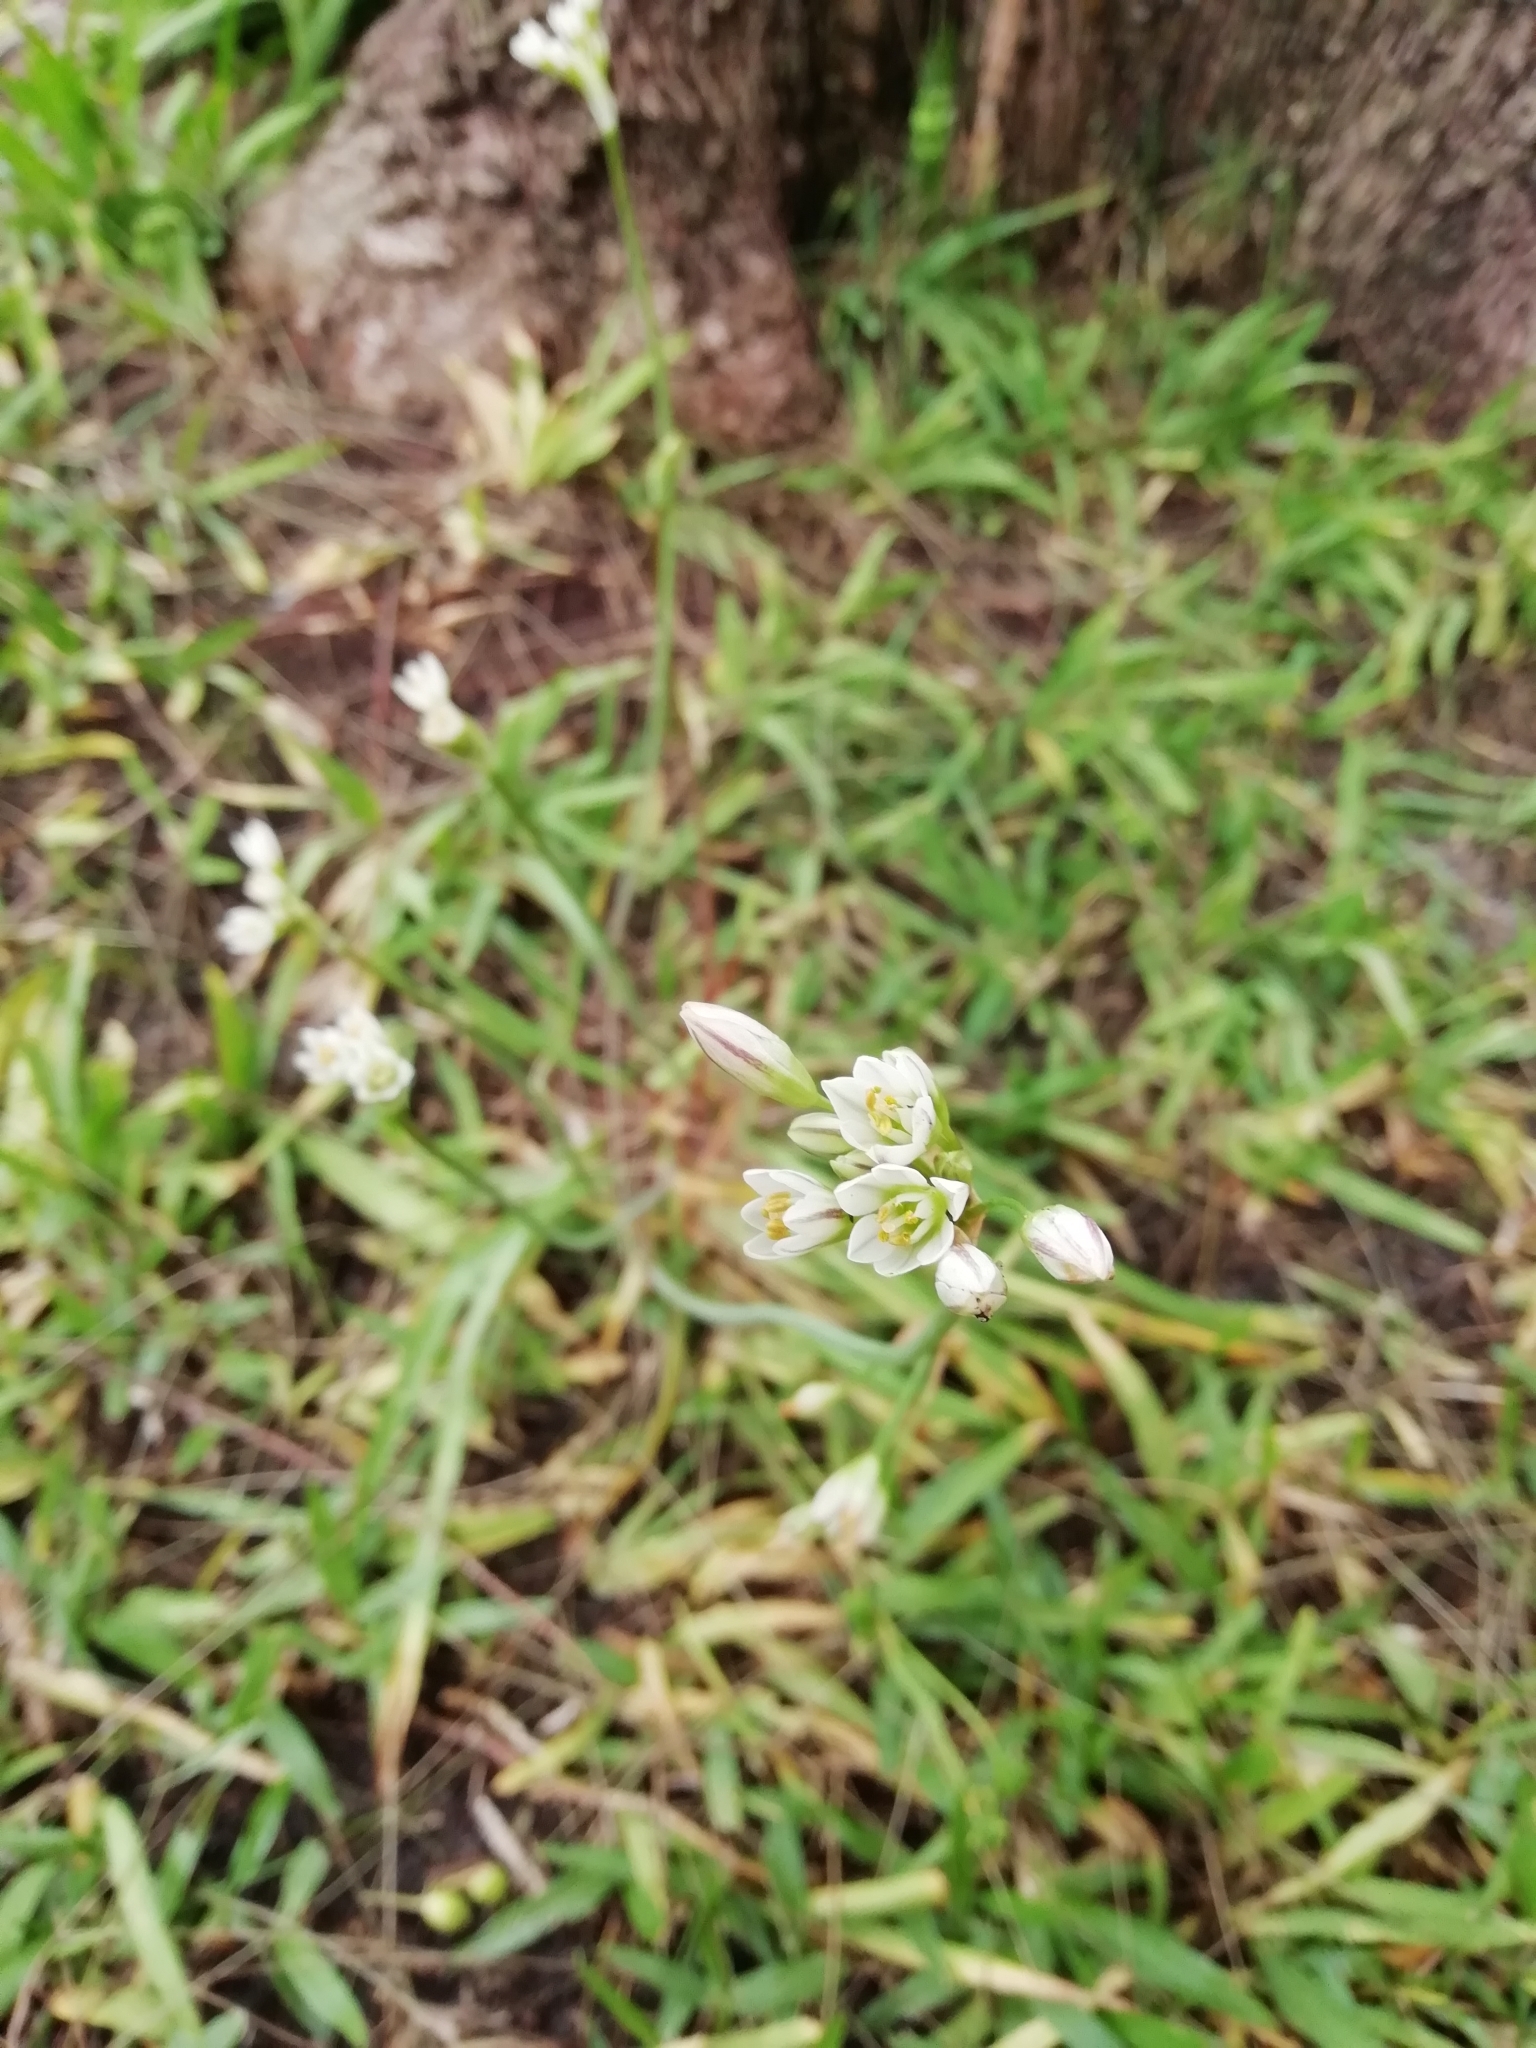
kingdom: Plantae
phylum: Tracheophyta
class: Liliopsida
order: Asparagales
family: Amaryllidaceae
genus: Nothoscordum
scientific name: Nothoscordum gracile
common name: Slender false garlic
